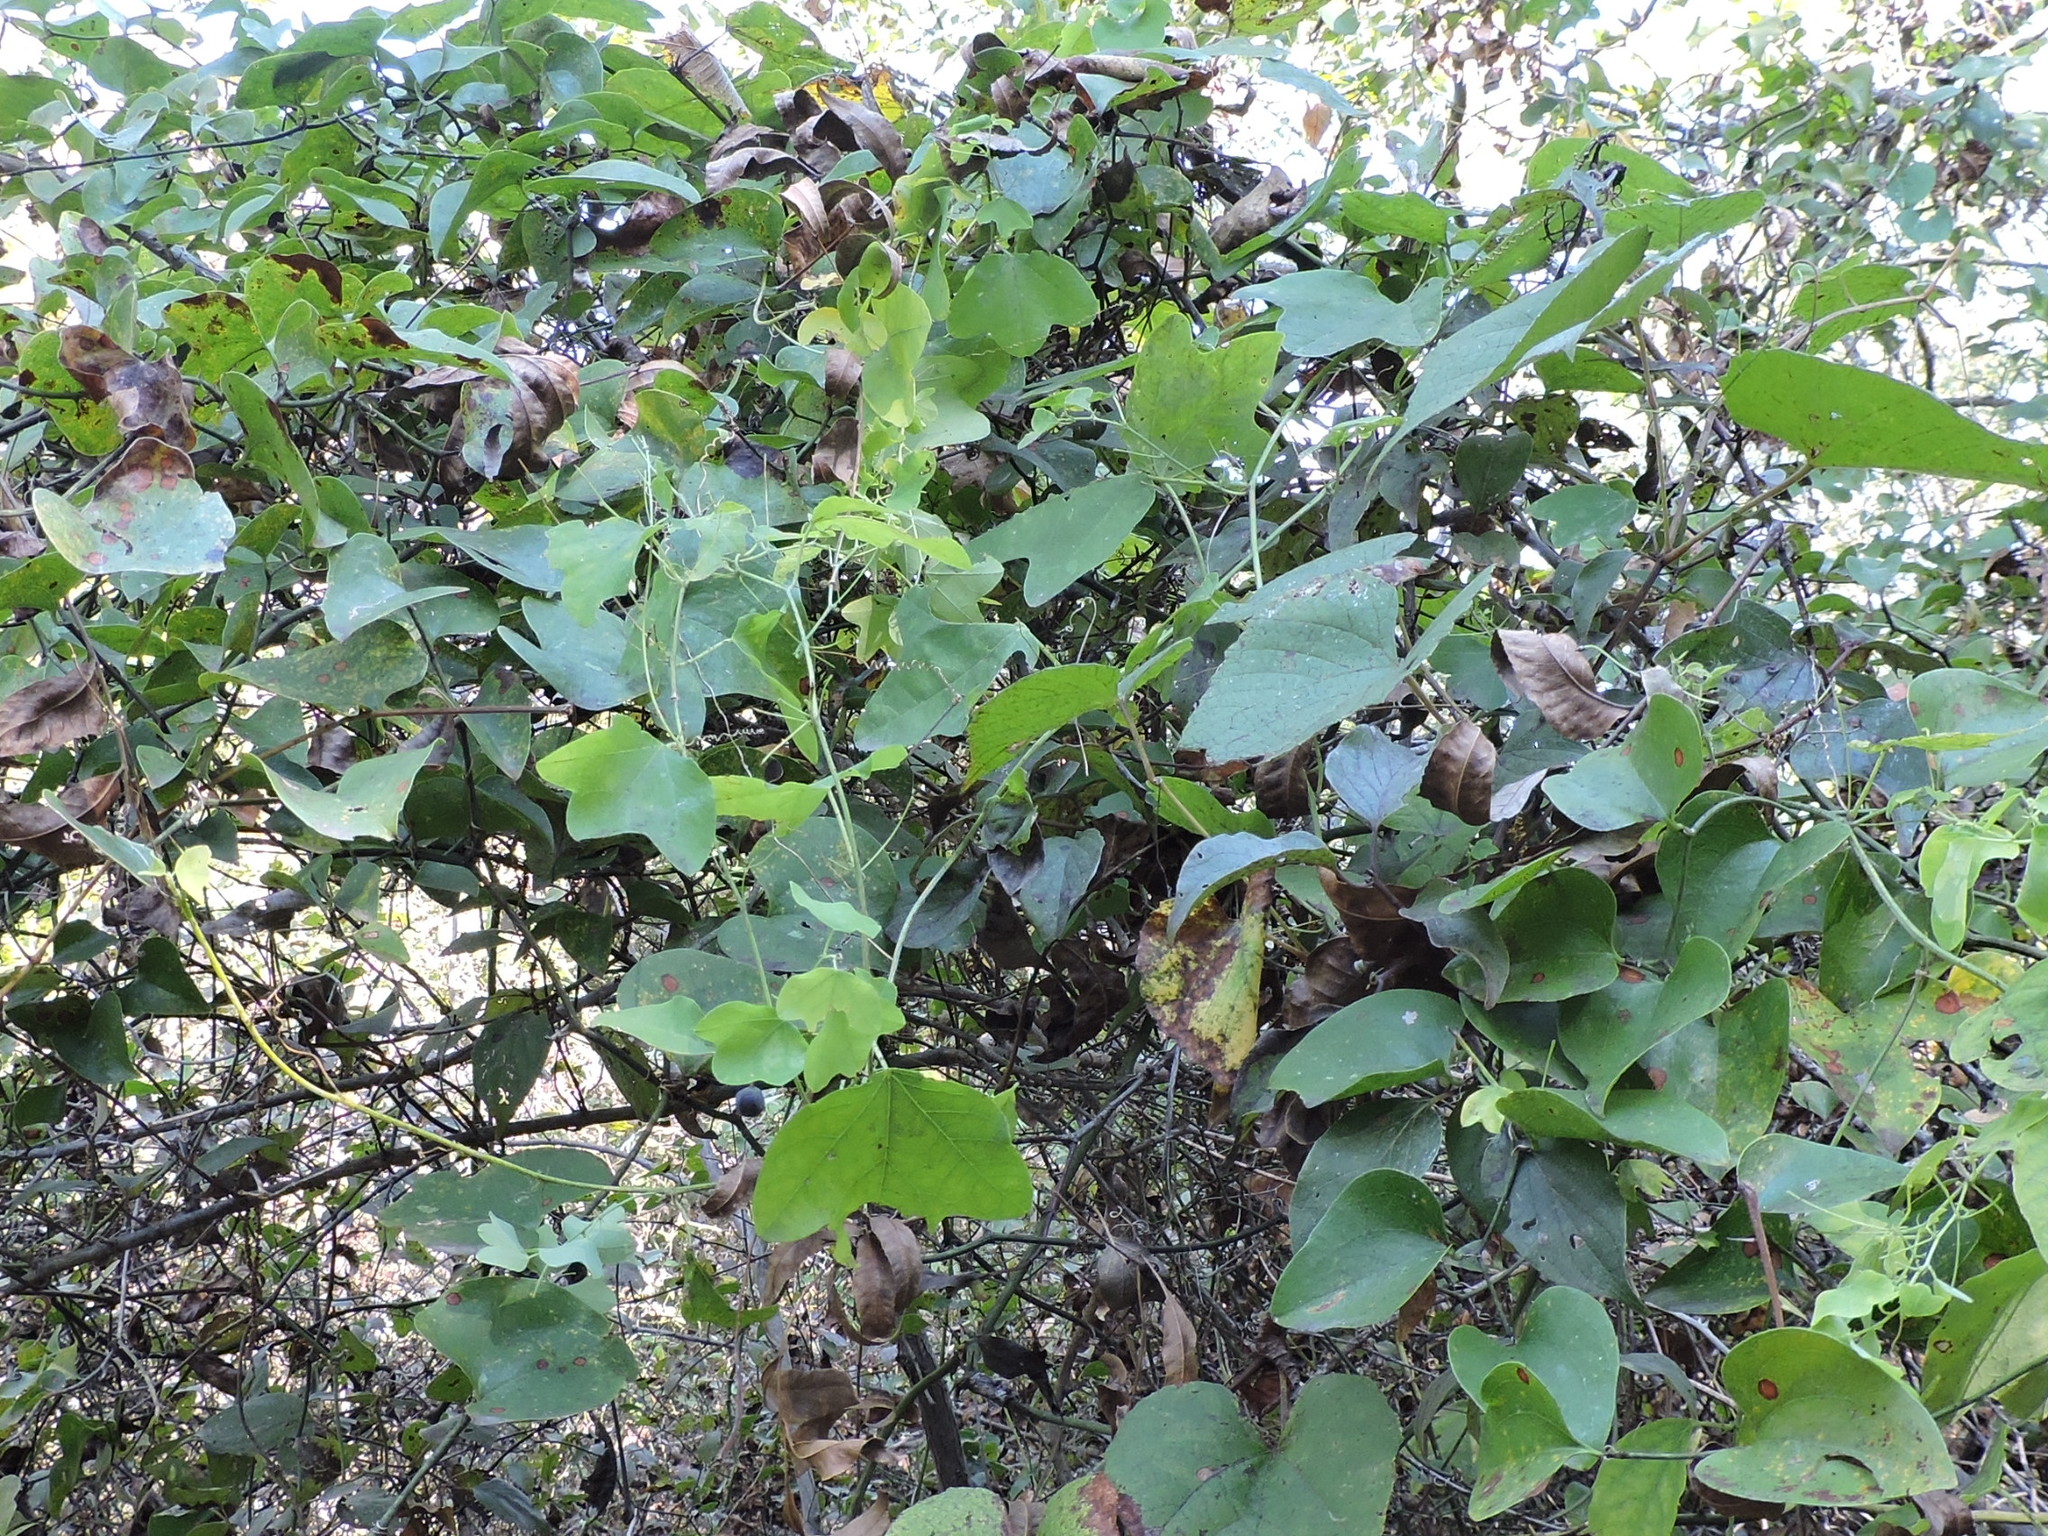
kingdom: Plantae
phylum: Tracheophyta
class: Magnoliopsida
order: Malpighiales
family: Passifloraceae
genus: Passiflora
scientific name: Passiflora lutea
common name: Yellow passionflower
